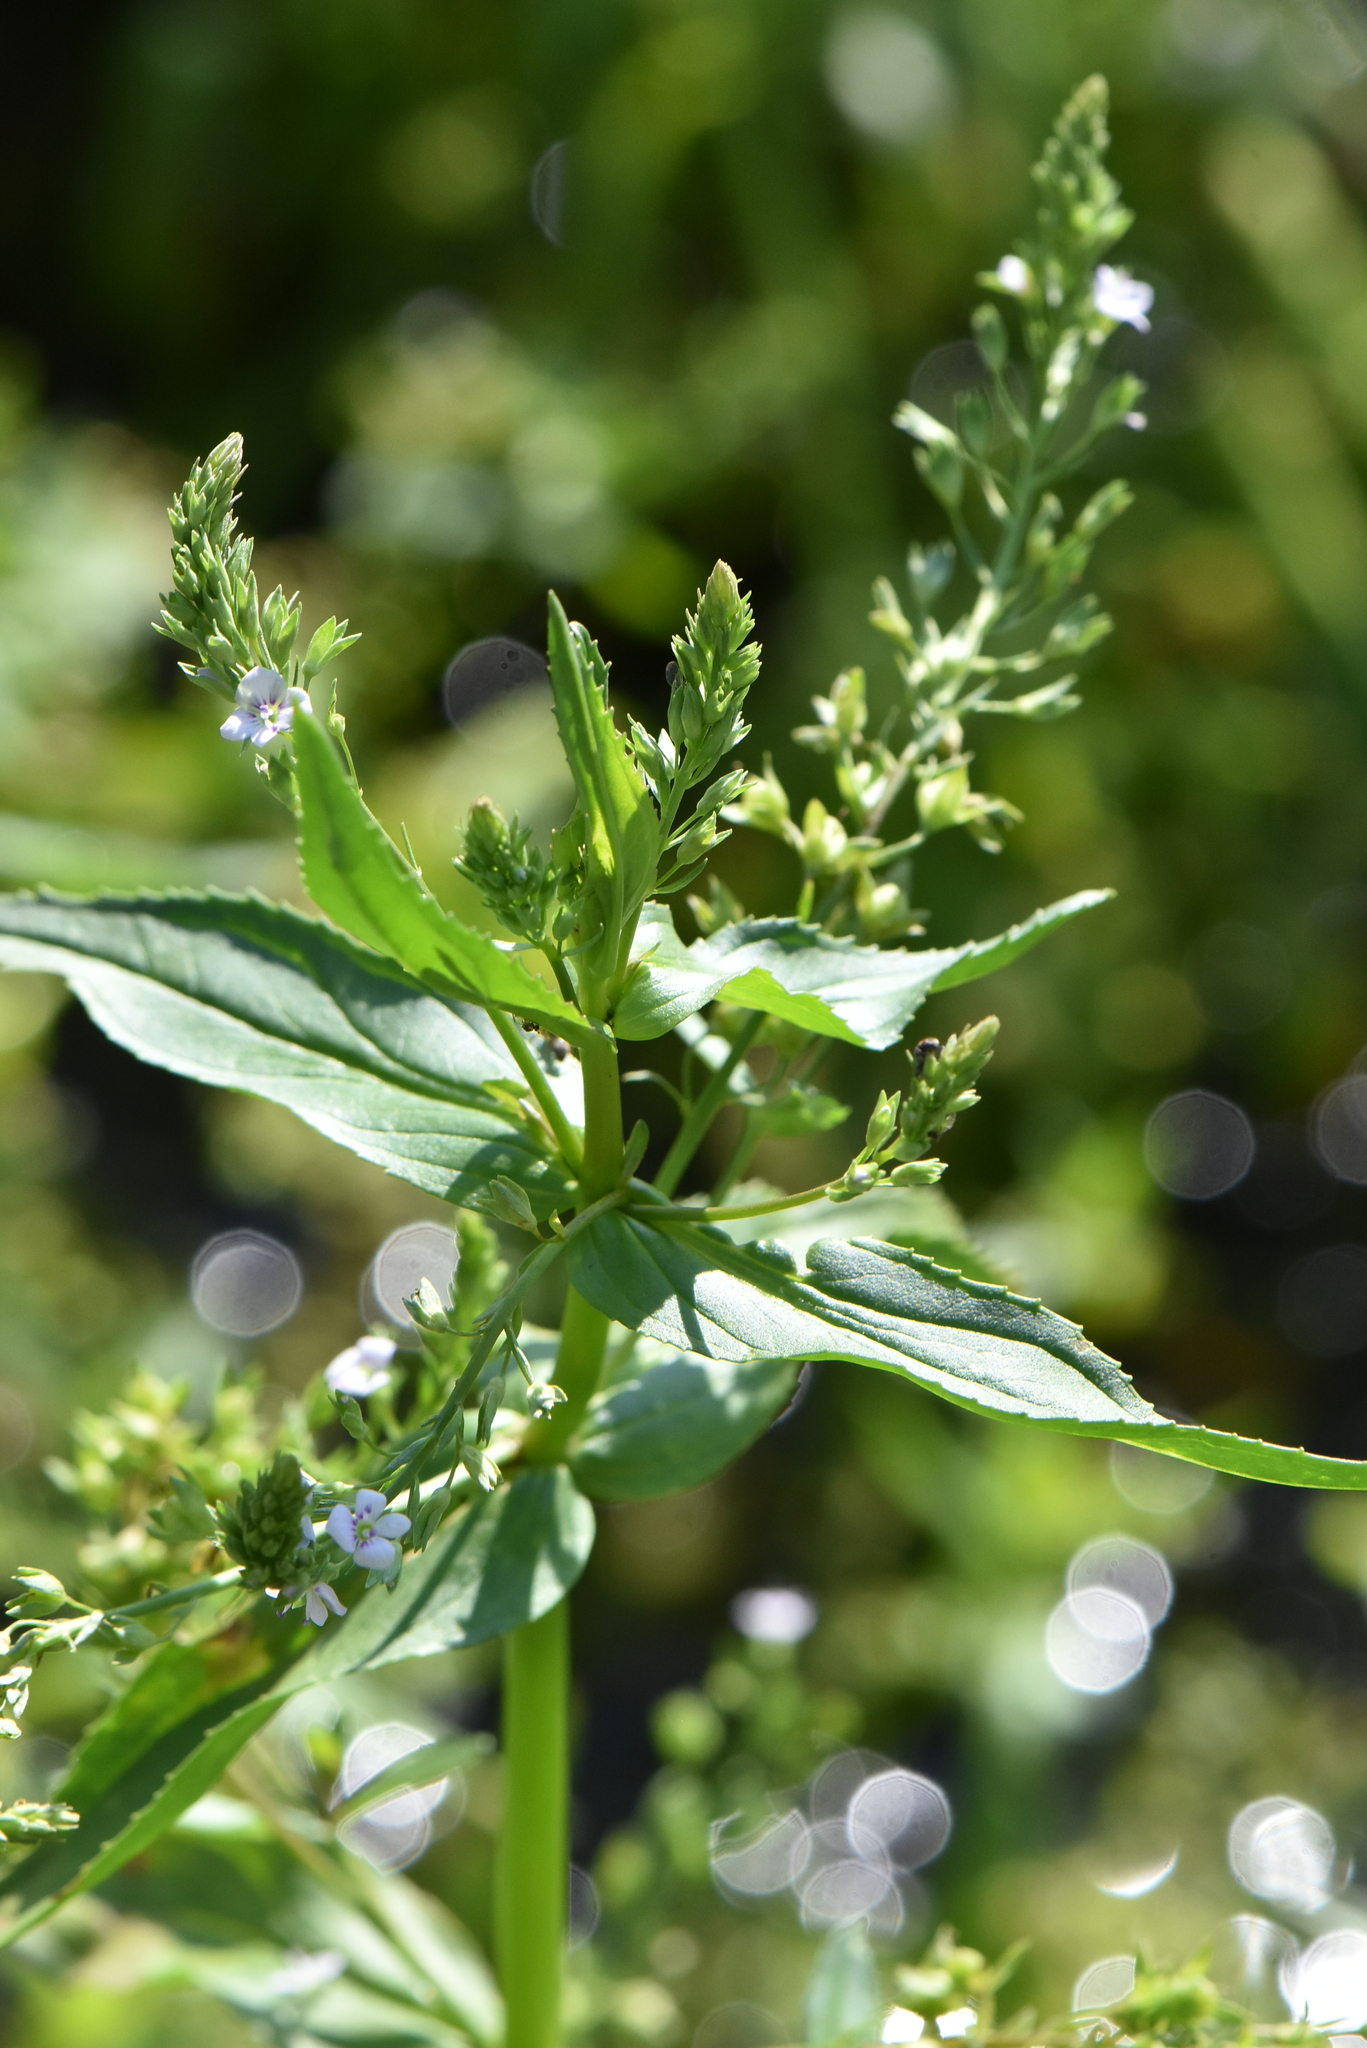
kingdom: Plantae
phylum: Tracheophyta
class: Magnoliopsida
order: Lamiales
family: Plantaginaceae
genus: Veronica
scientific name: Veronica anagallis-aquatica
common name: Water speedwell
